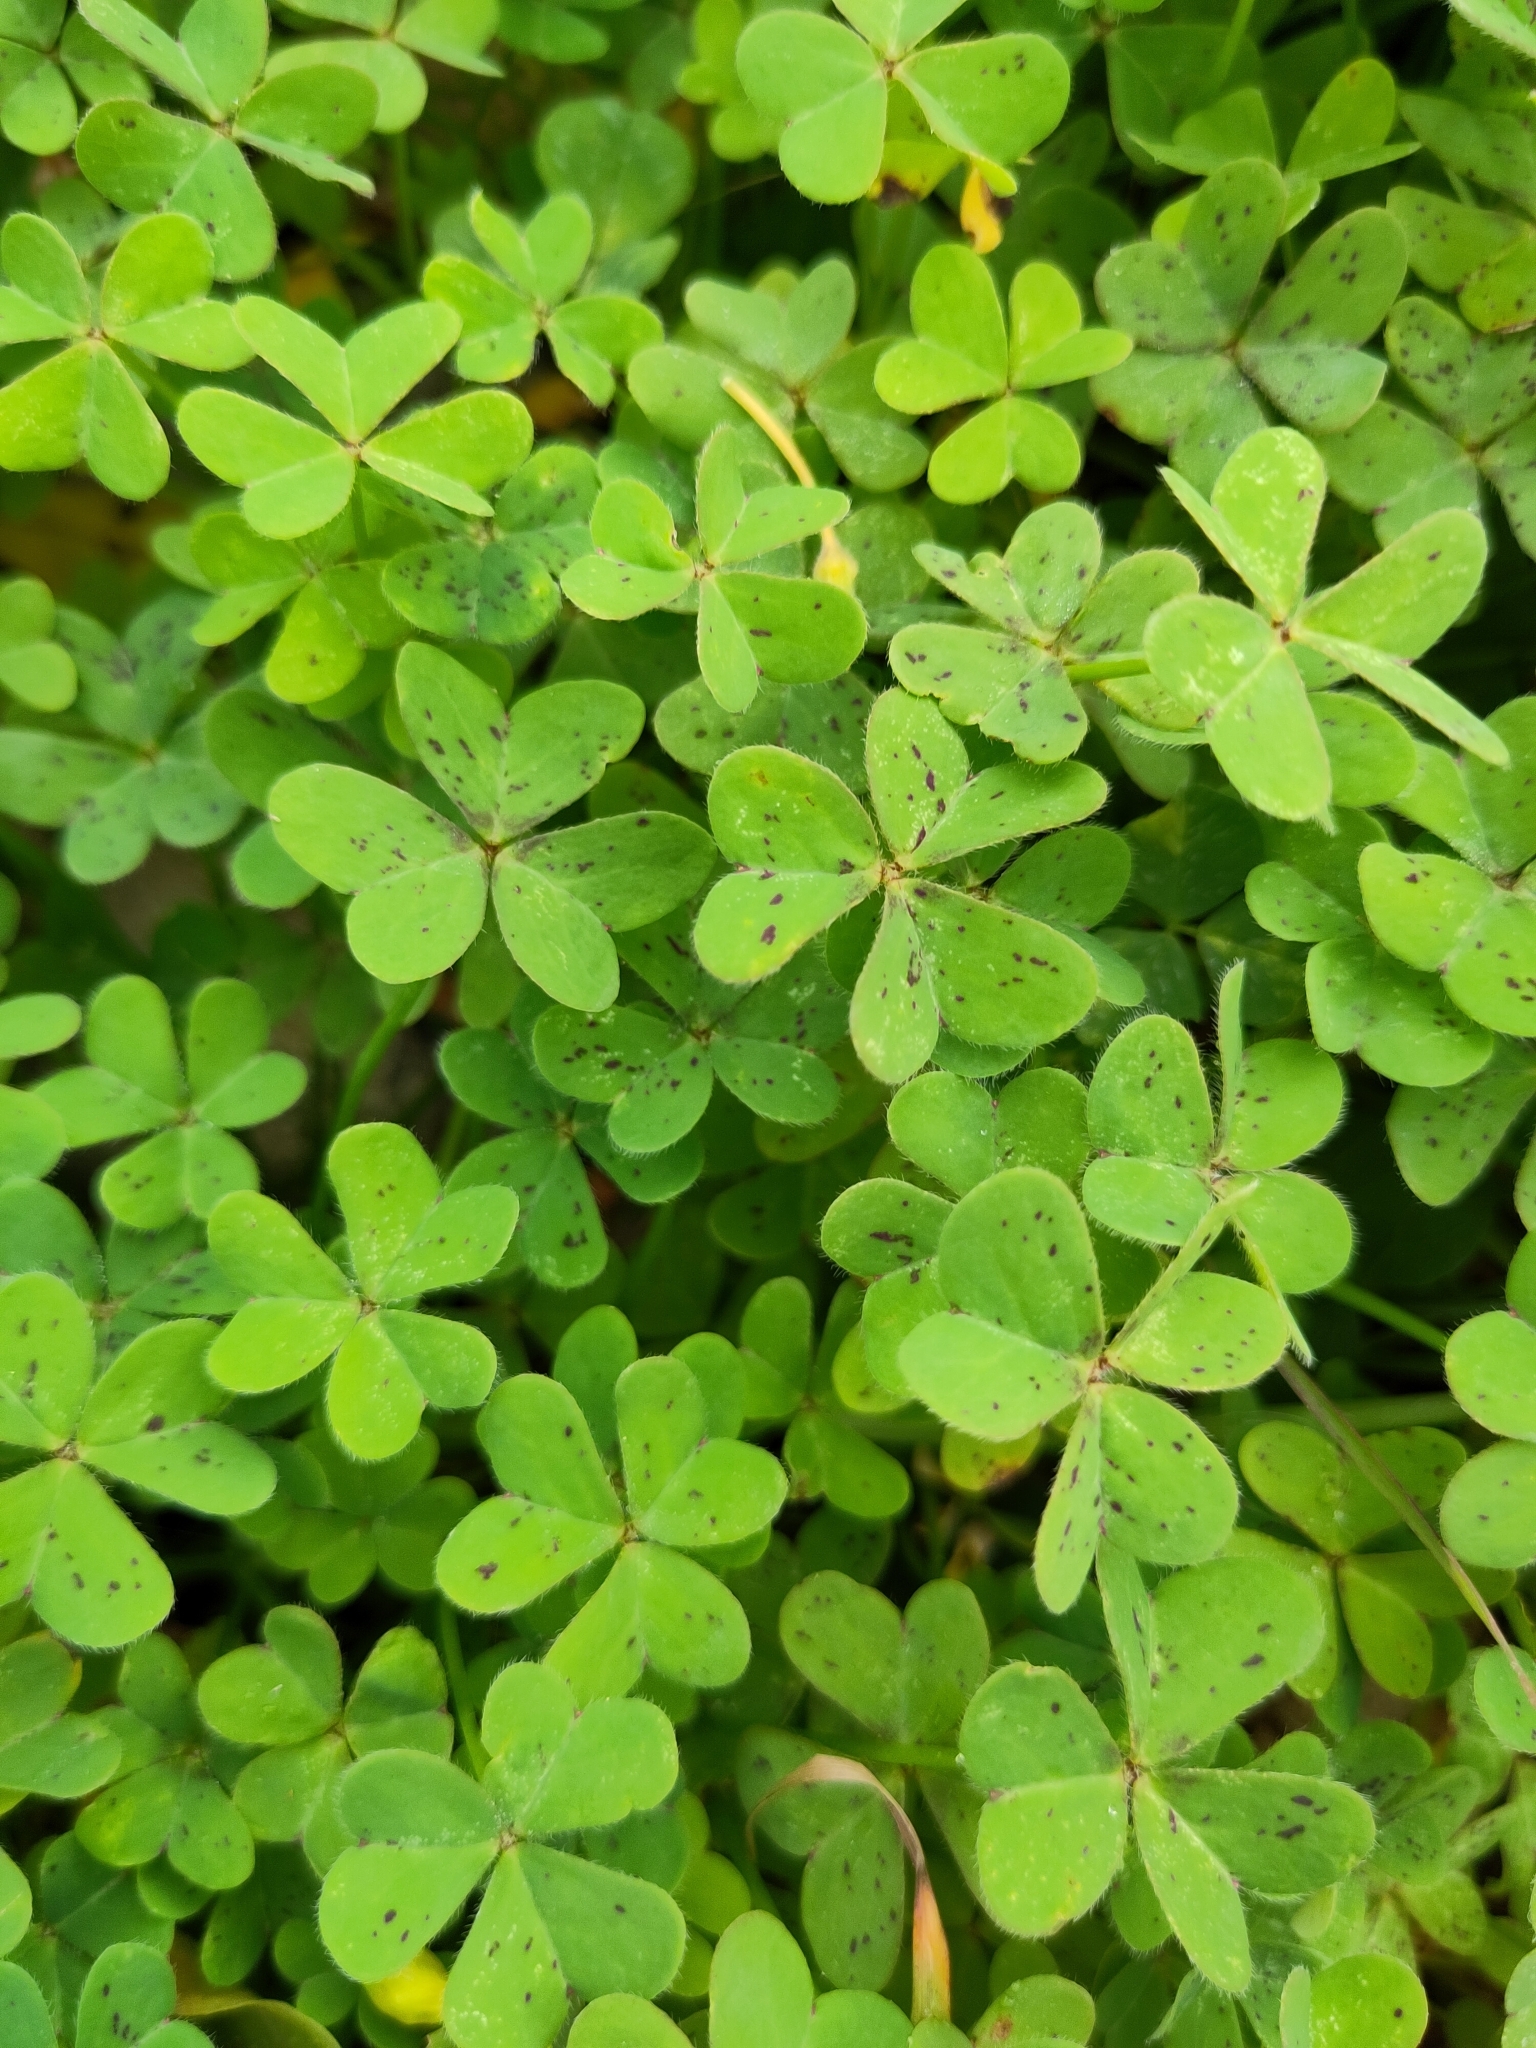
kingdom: Plantae
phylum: Tracheophyta
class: Magnoliopsida
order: Oxalidales
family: Oxalidaceae
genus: Oxalis
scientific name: Oxalis pes-caprae
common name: Bermuda-buttercup
